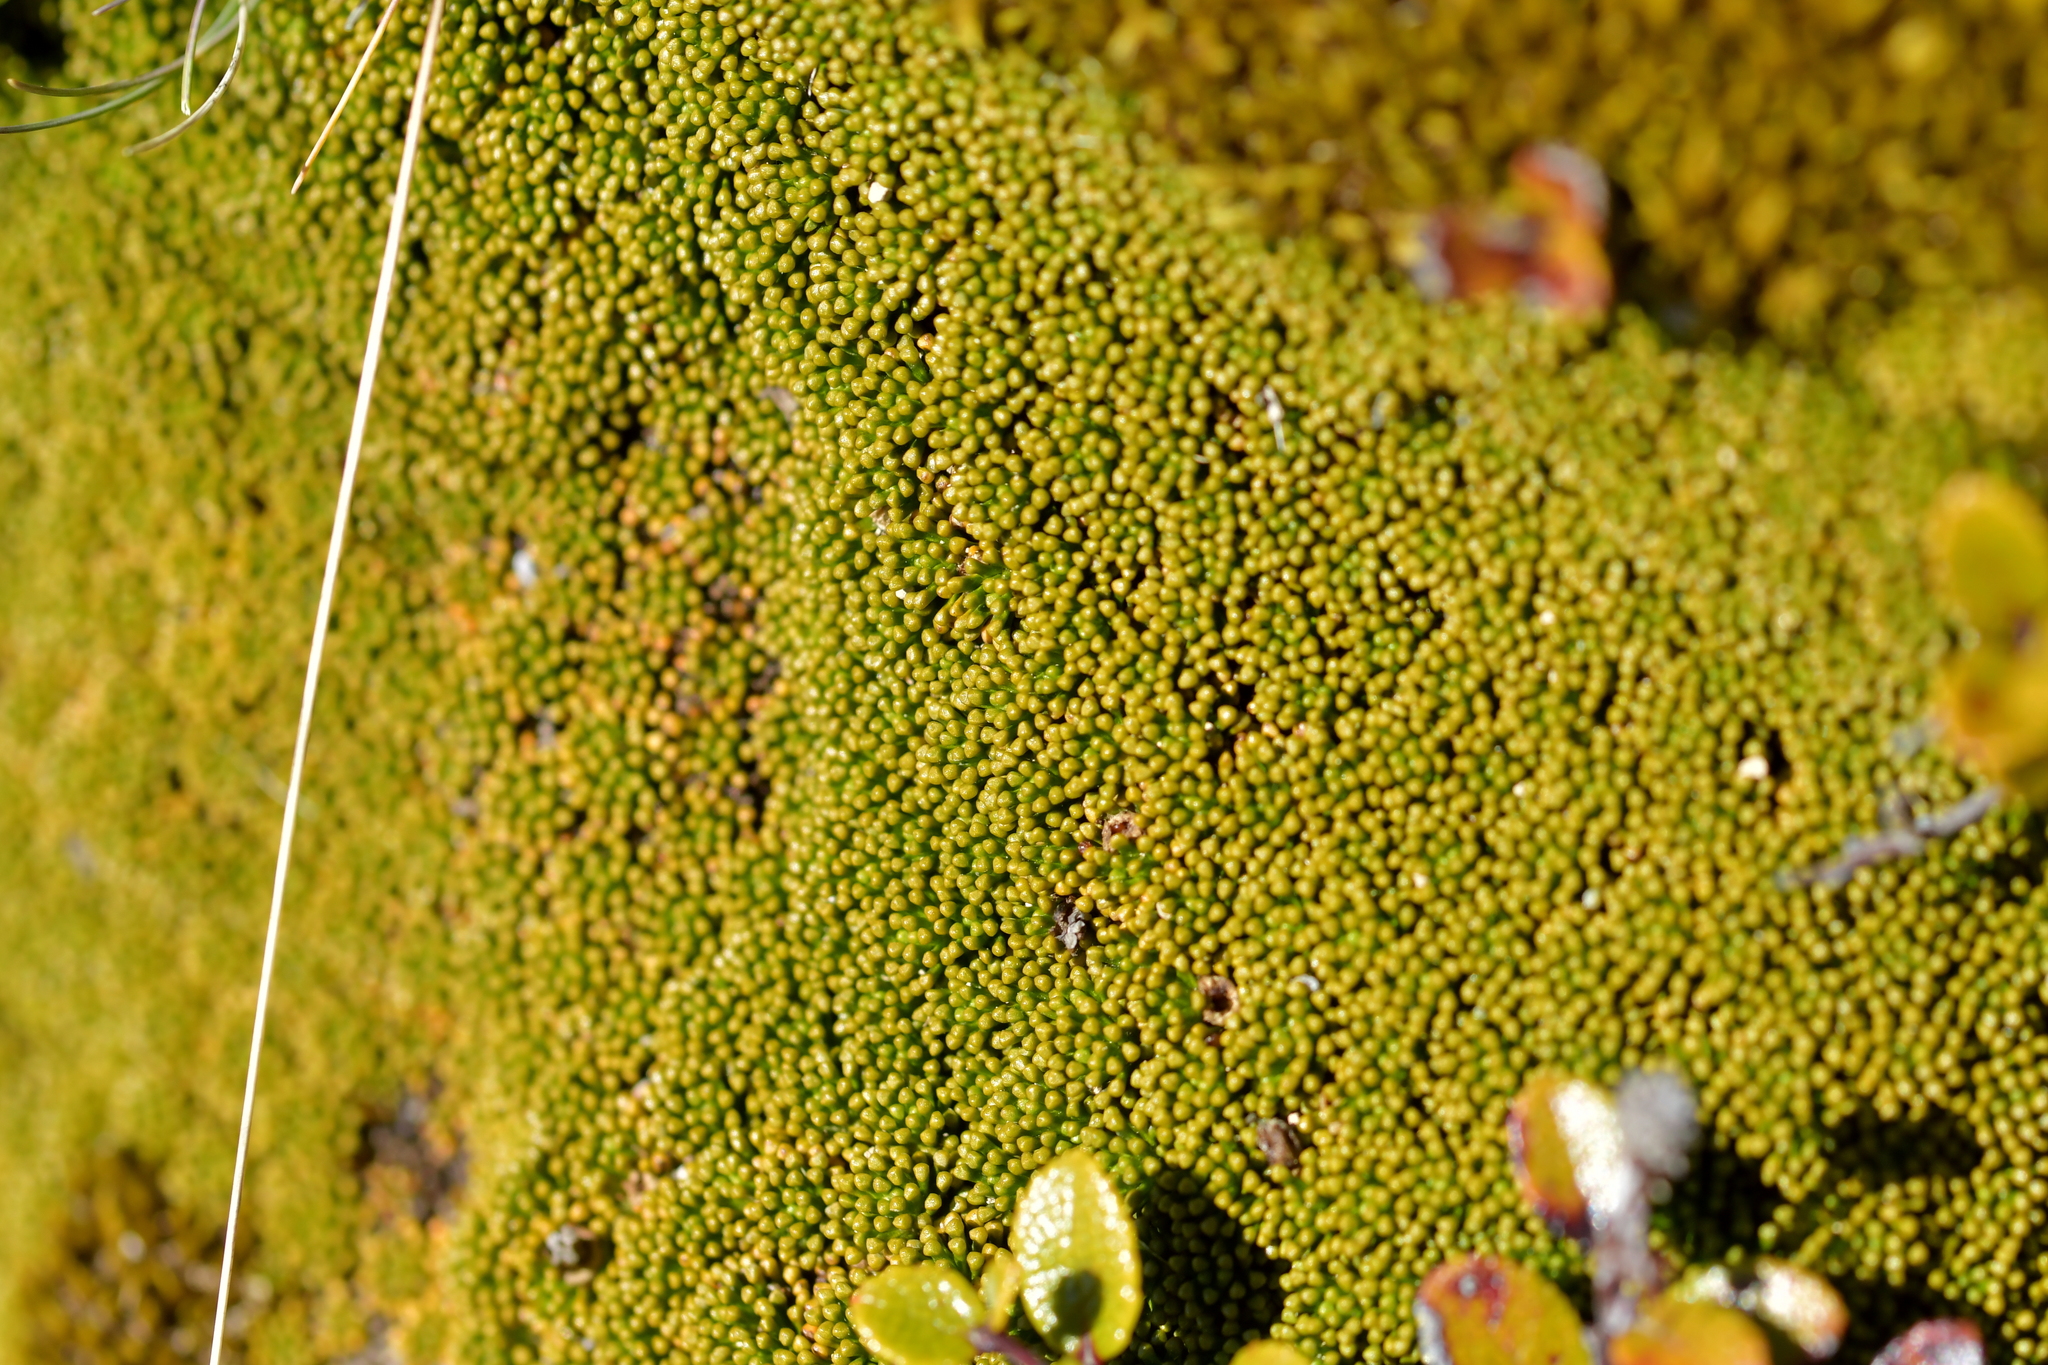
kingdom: Plantae
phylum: Tracheophyta
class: Magnoliopsida
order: Asterales
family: Stylidiaceae
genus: Phyllachne
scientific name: Phyllachne colensoi
